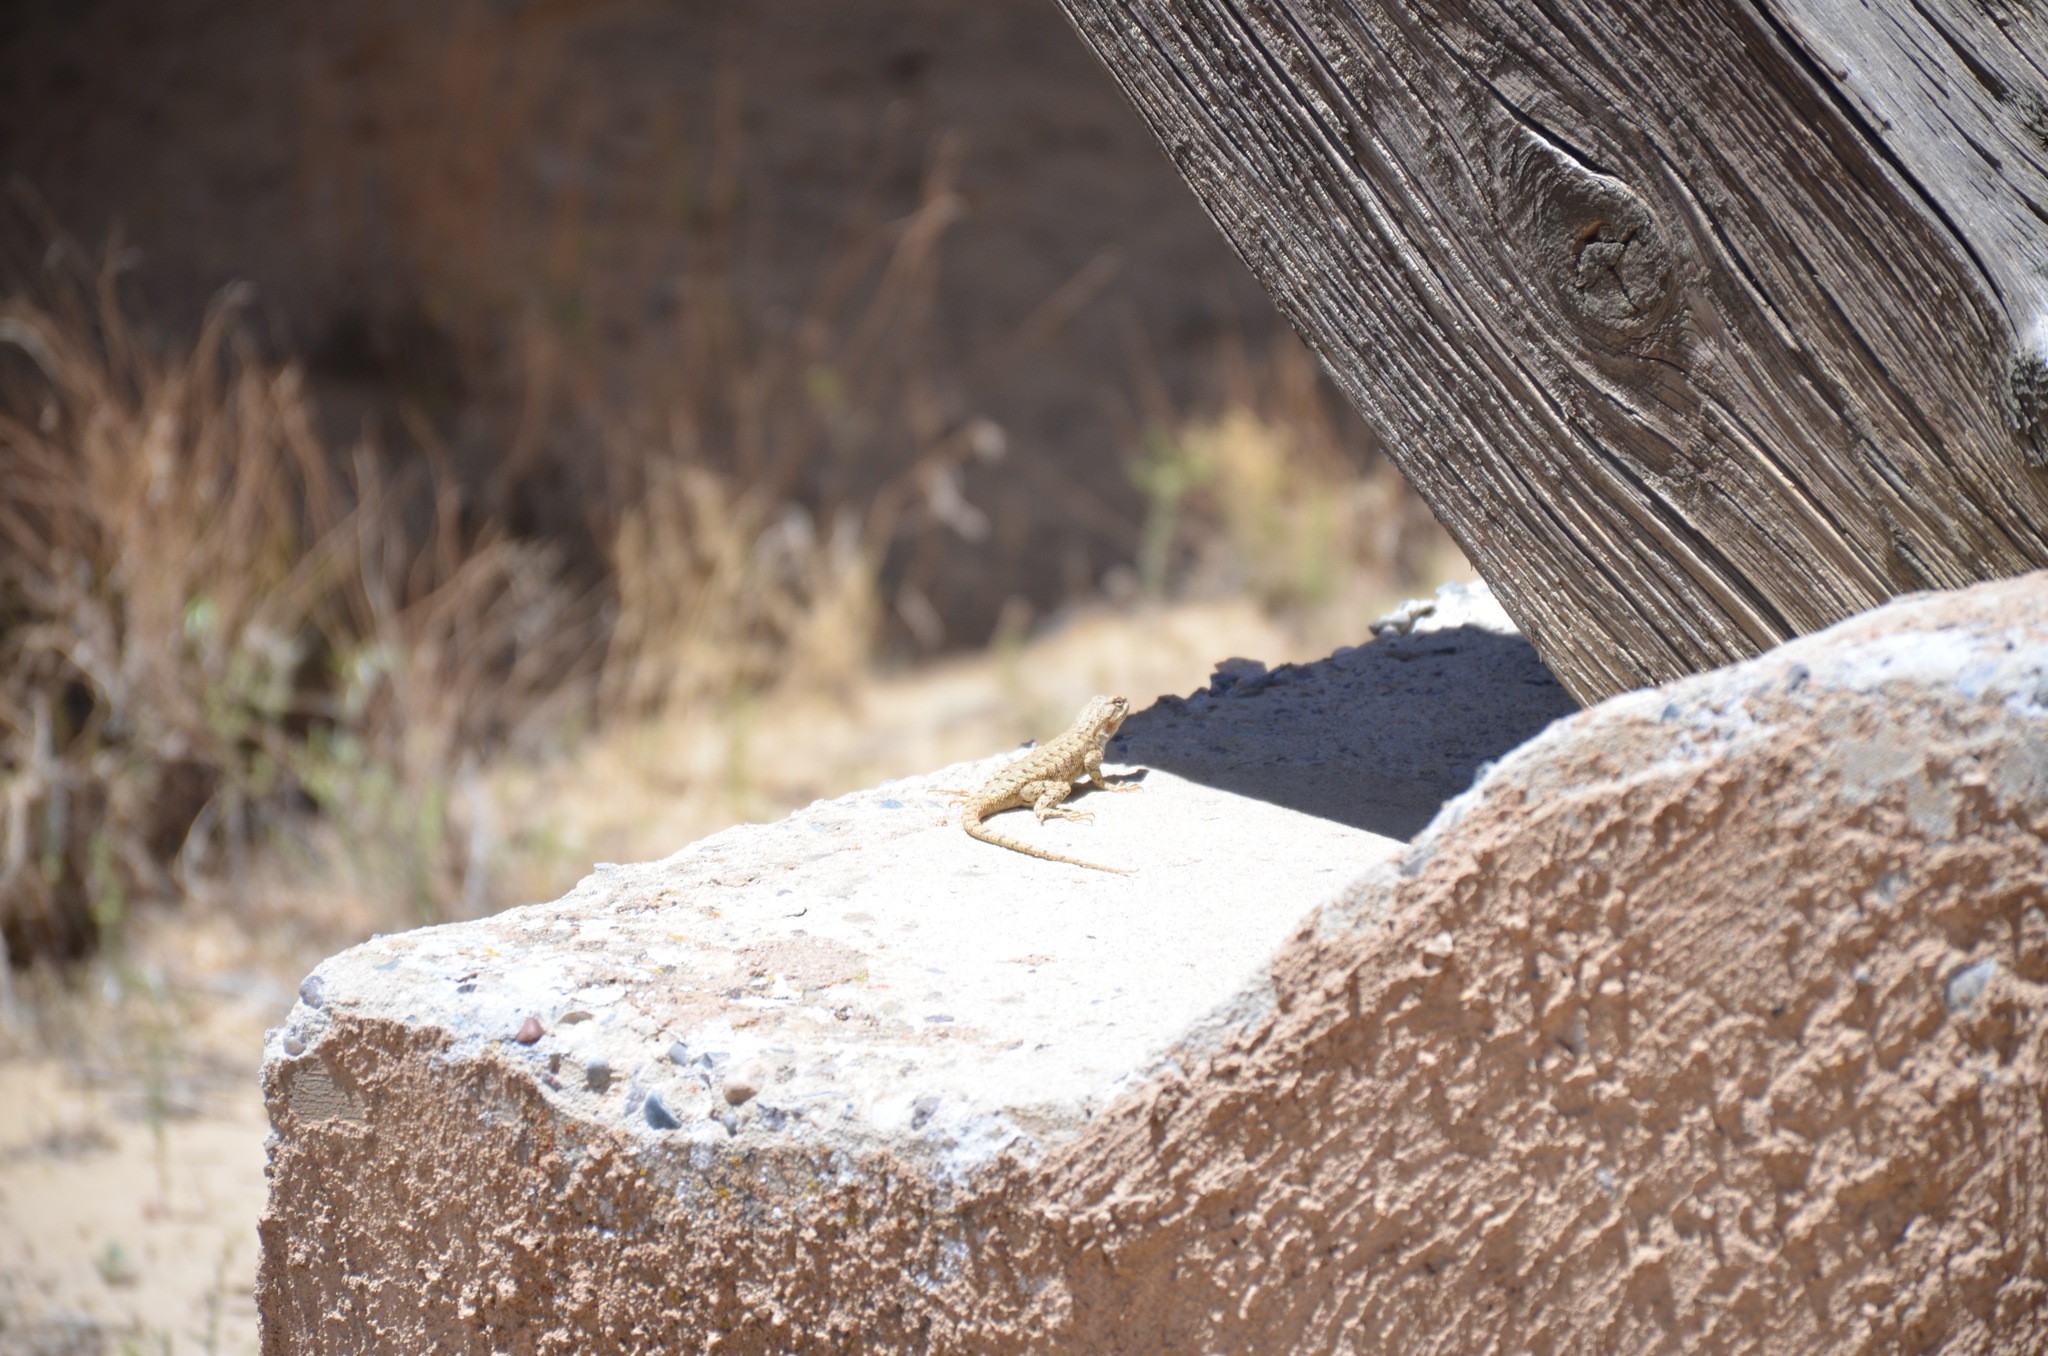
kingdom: Animalia
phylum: Chordata
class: Squamata
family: Phrynosomatidae
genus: Sceloporus
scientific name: Sceloporus tristichus
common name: Plateau fence lizard
